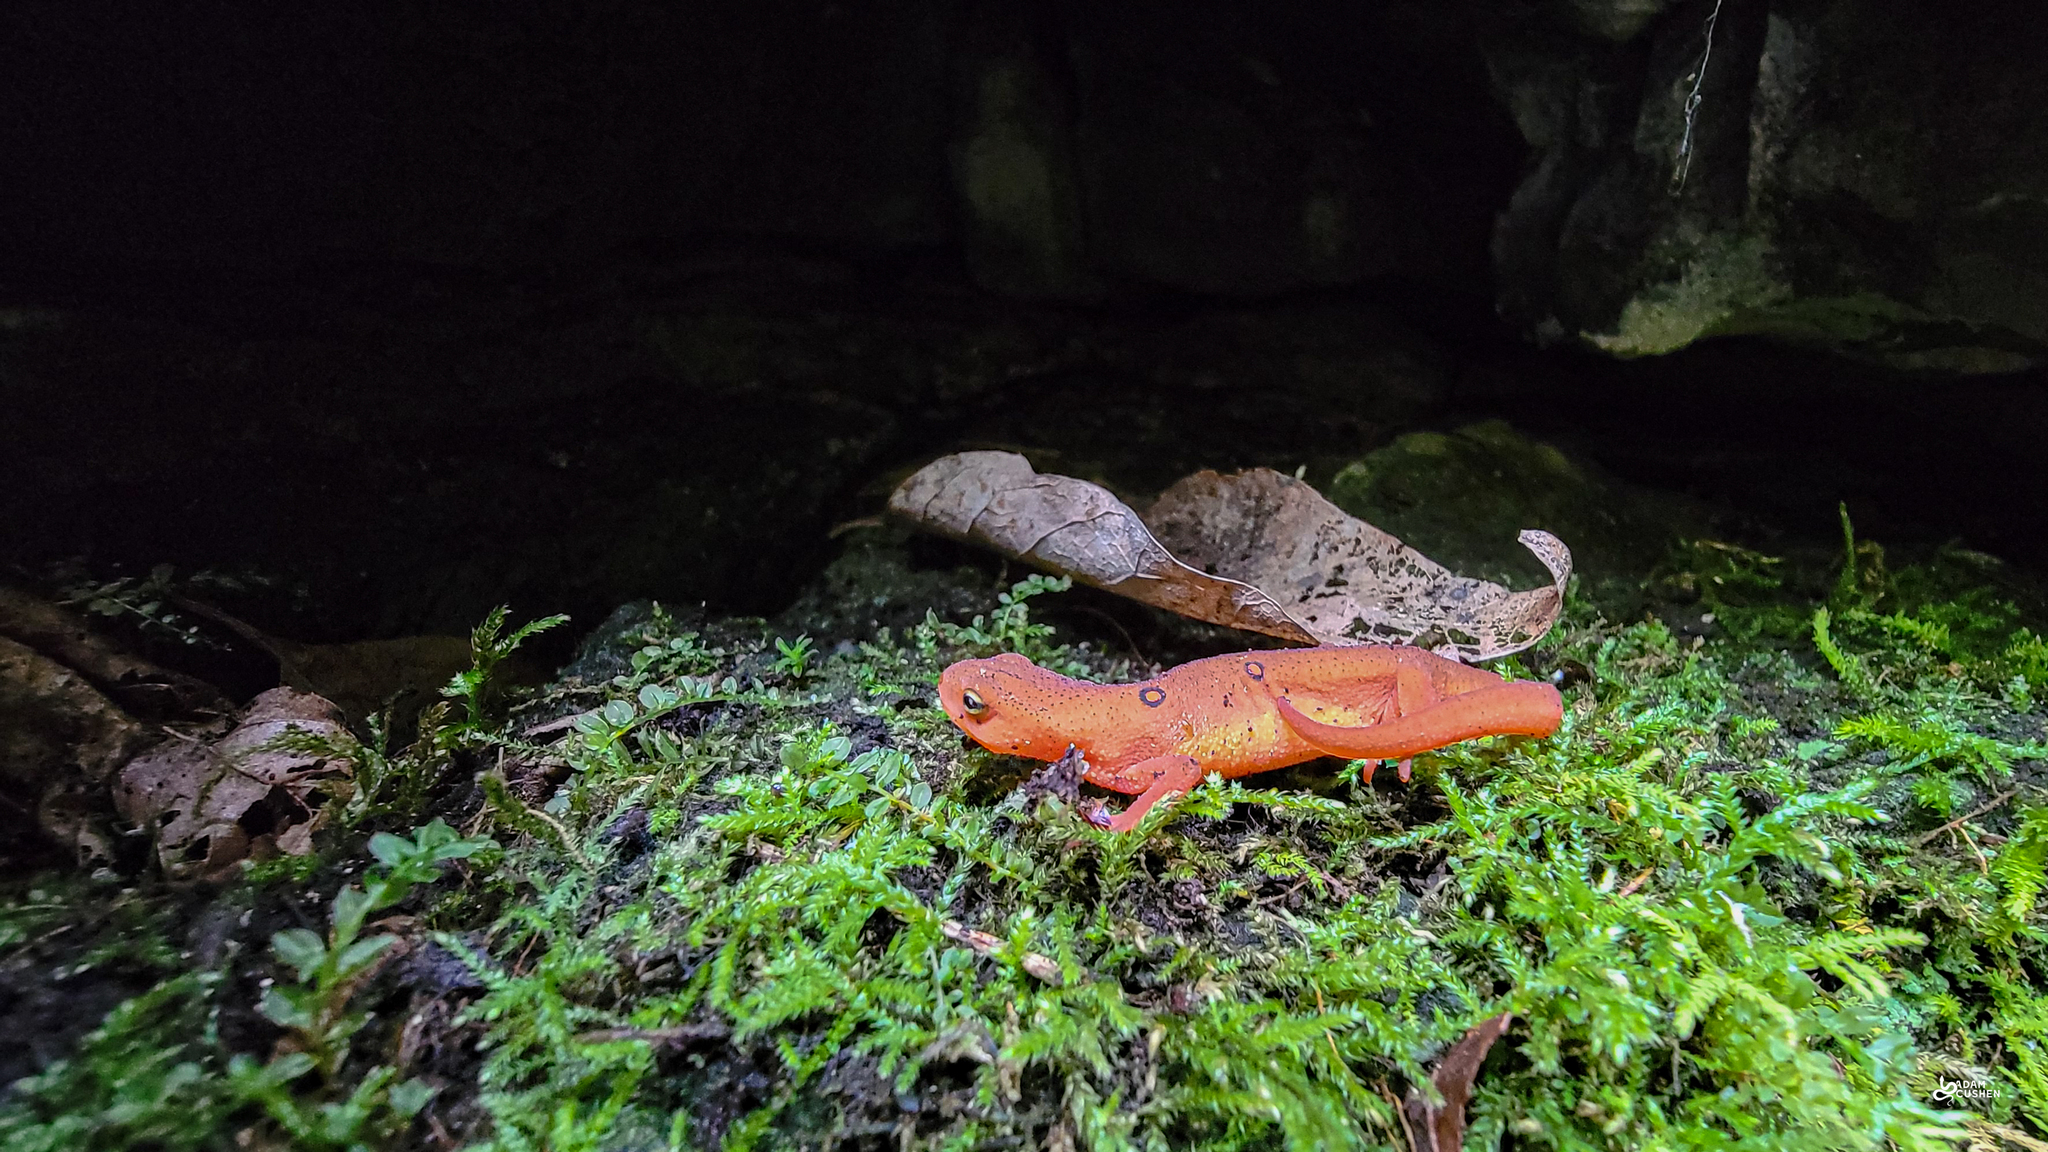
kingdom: Animalia
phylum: Chordata
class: Amphibia
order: Caudata
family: Salamandridae
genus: Notophthalmus
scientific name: Notophthalmus viridescens
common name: Eastern newt
